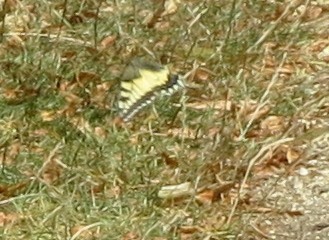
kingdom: Animalia
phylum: Arthropoda
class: Insecta
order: Lepidoptera
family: Papilionidae
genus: Papilio
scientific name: Papilio machaon
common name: Swallowtail
